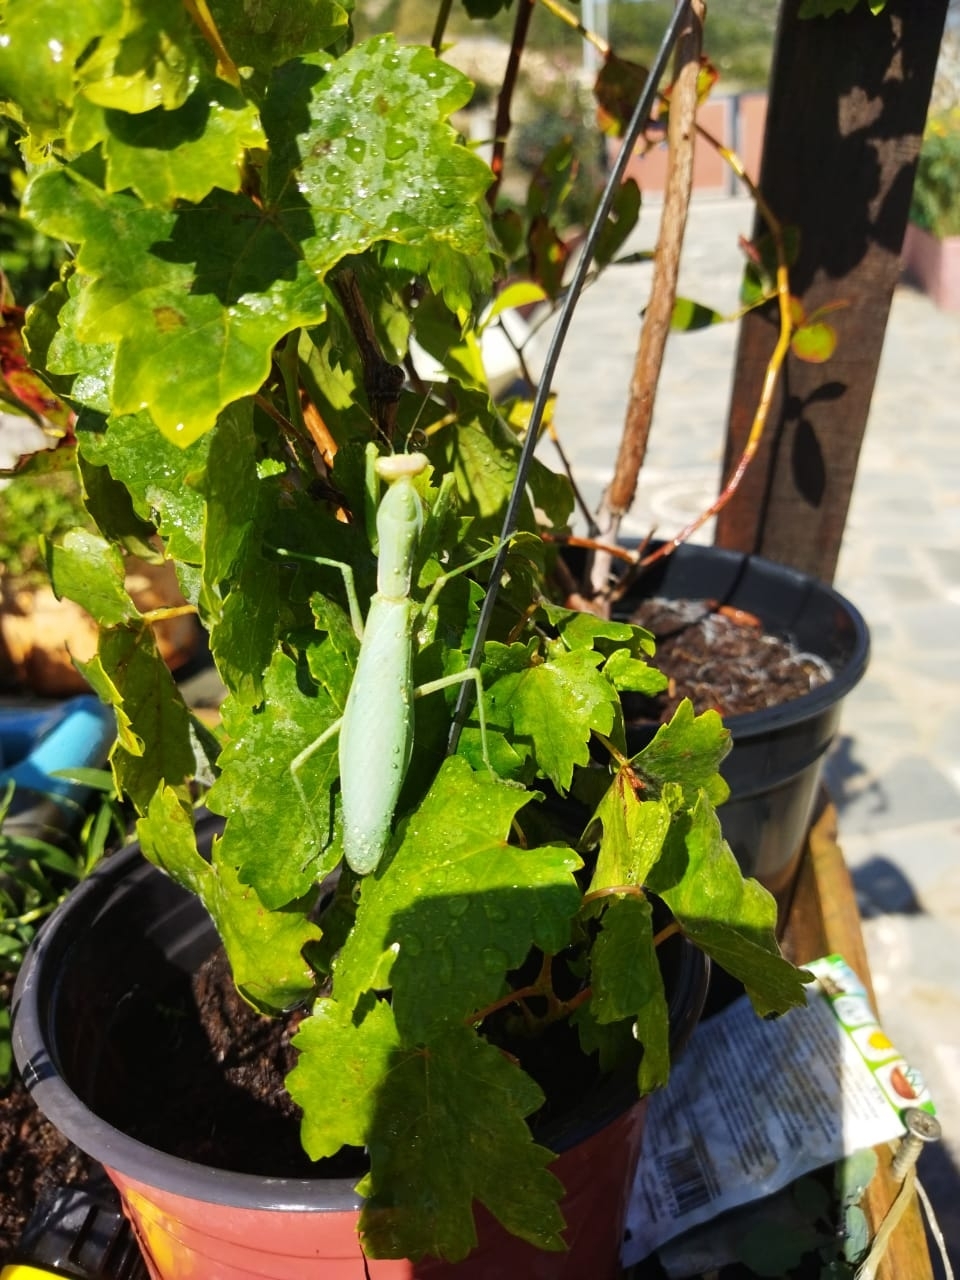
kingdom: Animalia
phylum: Arthropoda
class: Insecta
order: Mantodea
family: Mantidae
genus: Hierodula
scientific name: Hierodula transcaucasica
